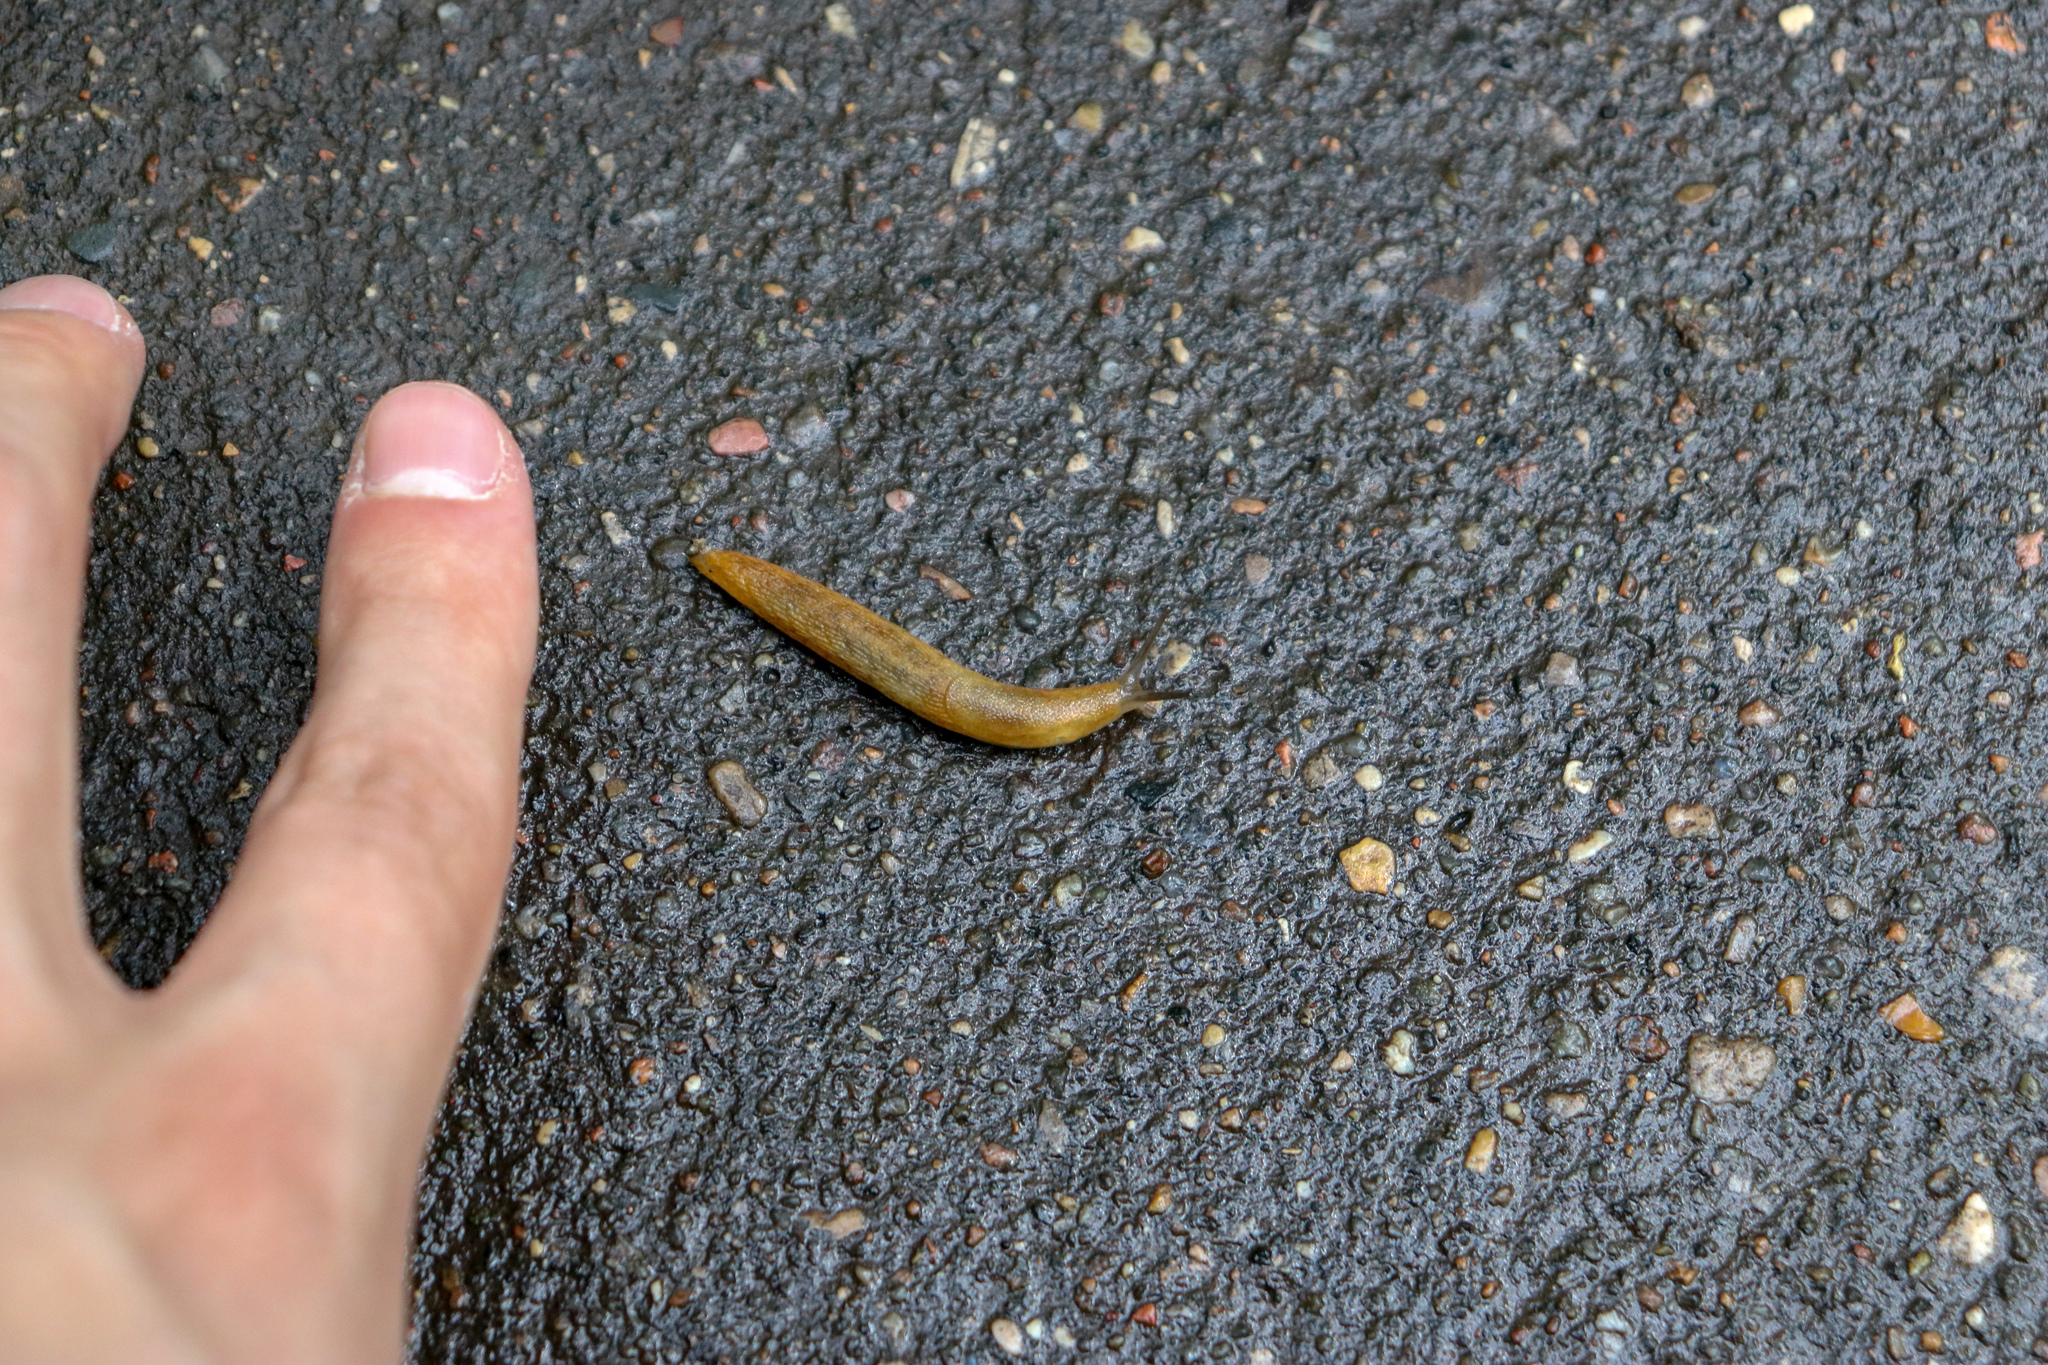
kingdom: Animalia
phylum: Mollusca
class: Gastropoda
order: Stylommatophora
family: Arionidae
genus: Arion
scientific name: Arion fuscus
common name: Northern dusky slug
